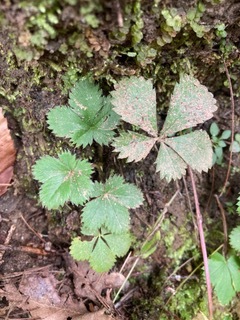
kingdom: Plantae
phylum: Tracheophyta
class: Magnoliopsida
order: Rosales
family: Rosaceae
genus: Potentilla
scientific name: Potentilla canadensis
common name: Canada cinquefoil
